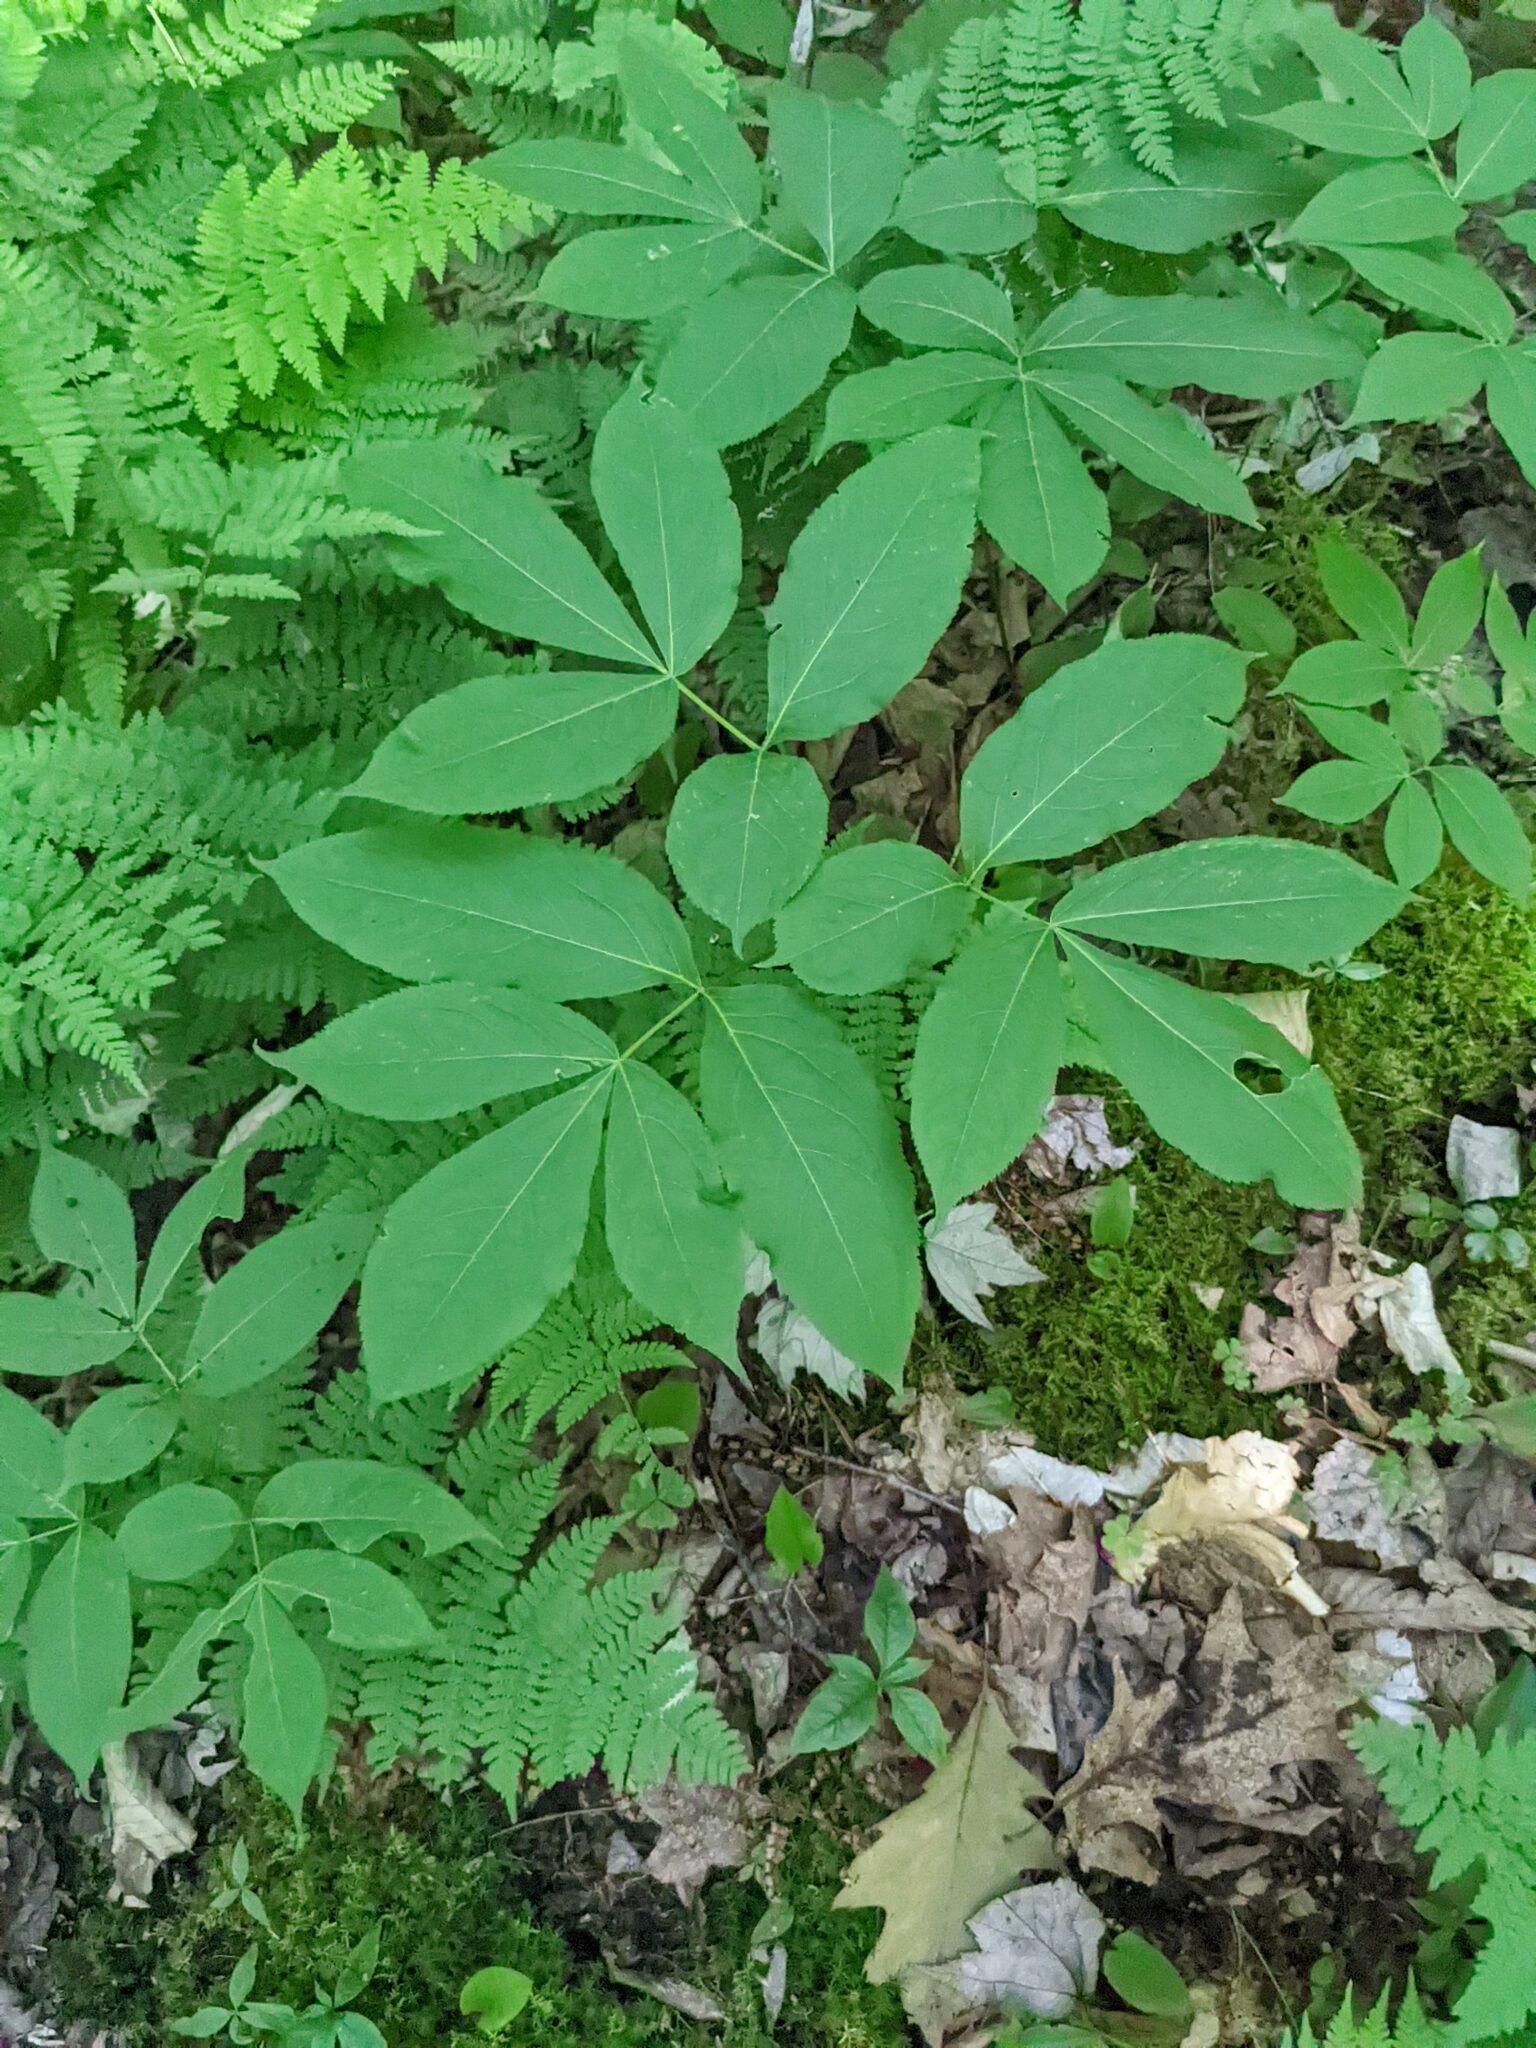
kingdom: Plantae
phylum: Tracheophyta
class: Magnoliopsida
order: Apiales
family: Araliaceae
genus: Aralia
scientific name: Aralia nudicaulis
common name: Wild sarsaparilla
